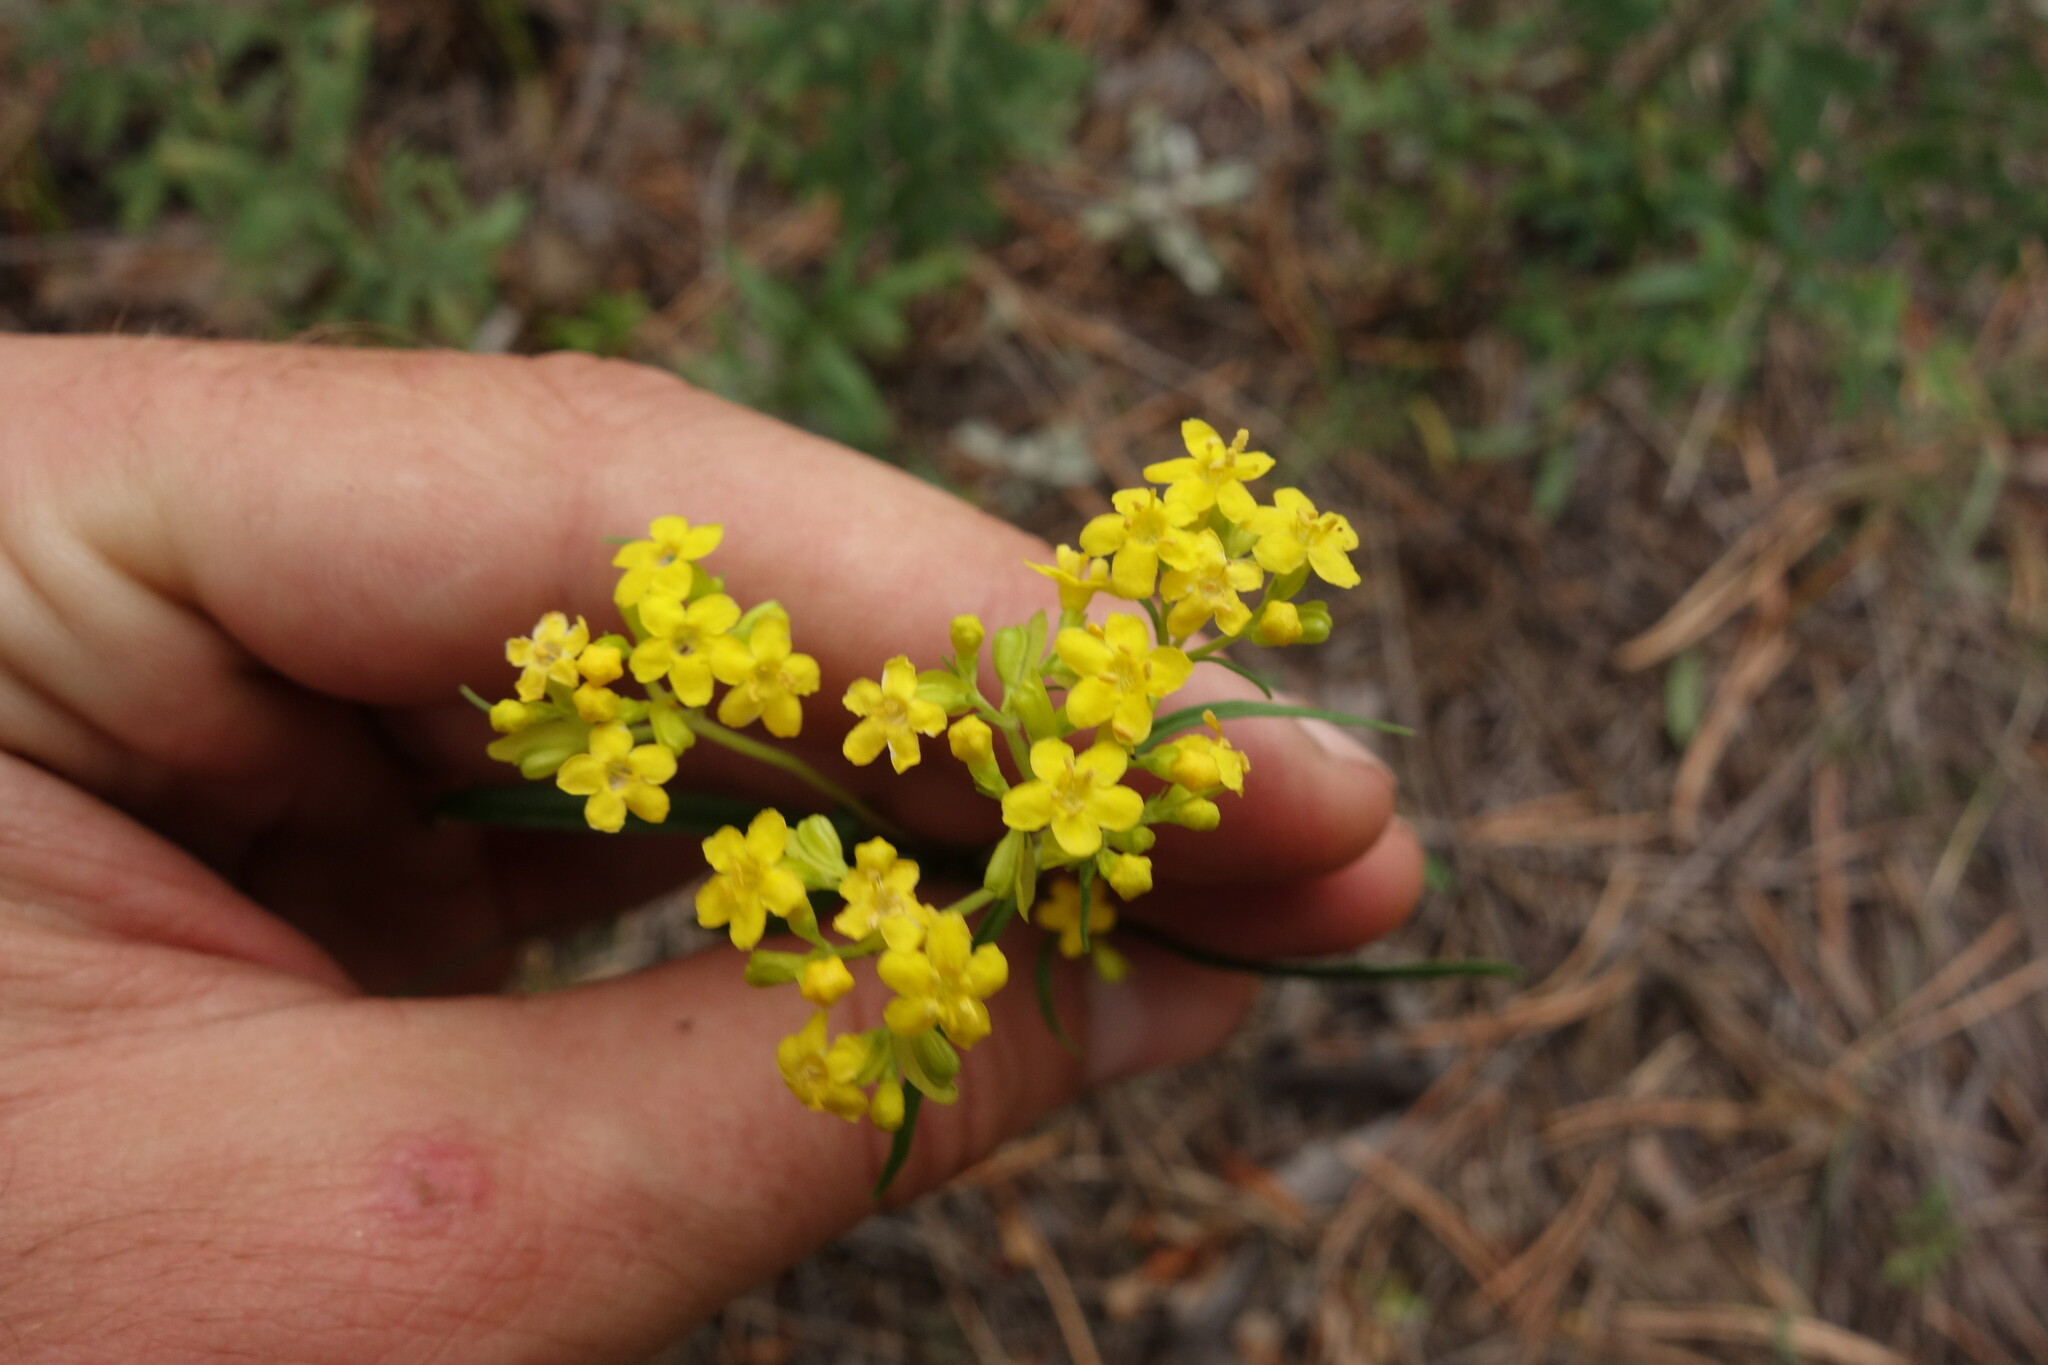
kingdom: Plantae
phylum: Tracheophyta
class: Magnoliopsida
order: Dipsacales
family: Caprifoliaceae
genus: Patrinia
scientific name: Patrinia rupestris
